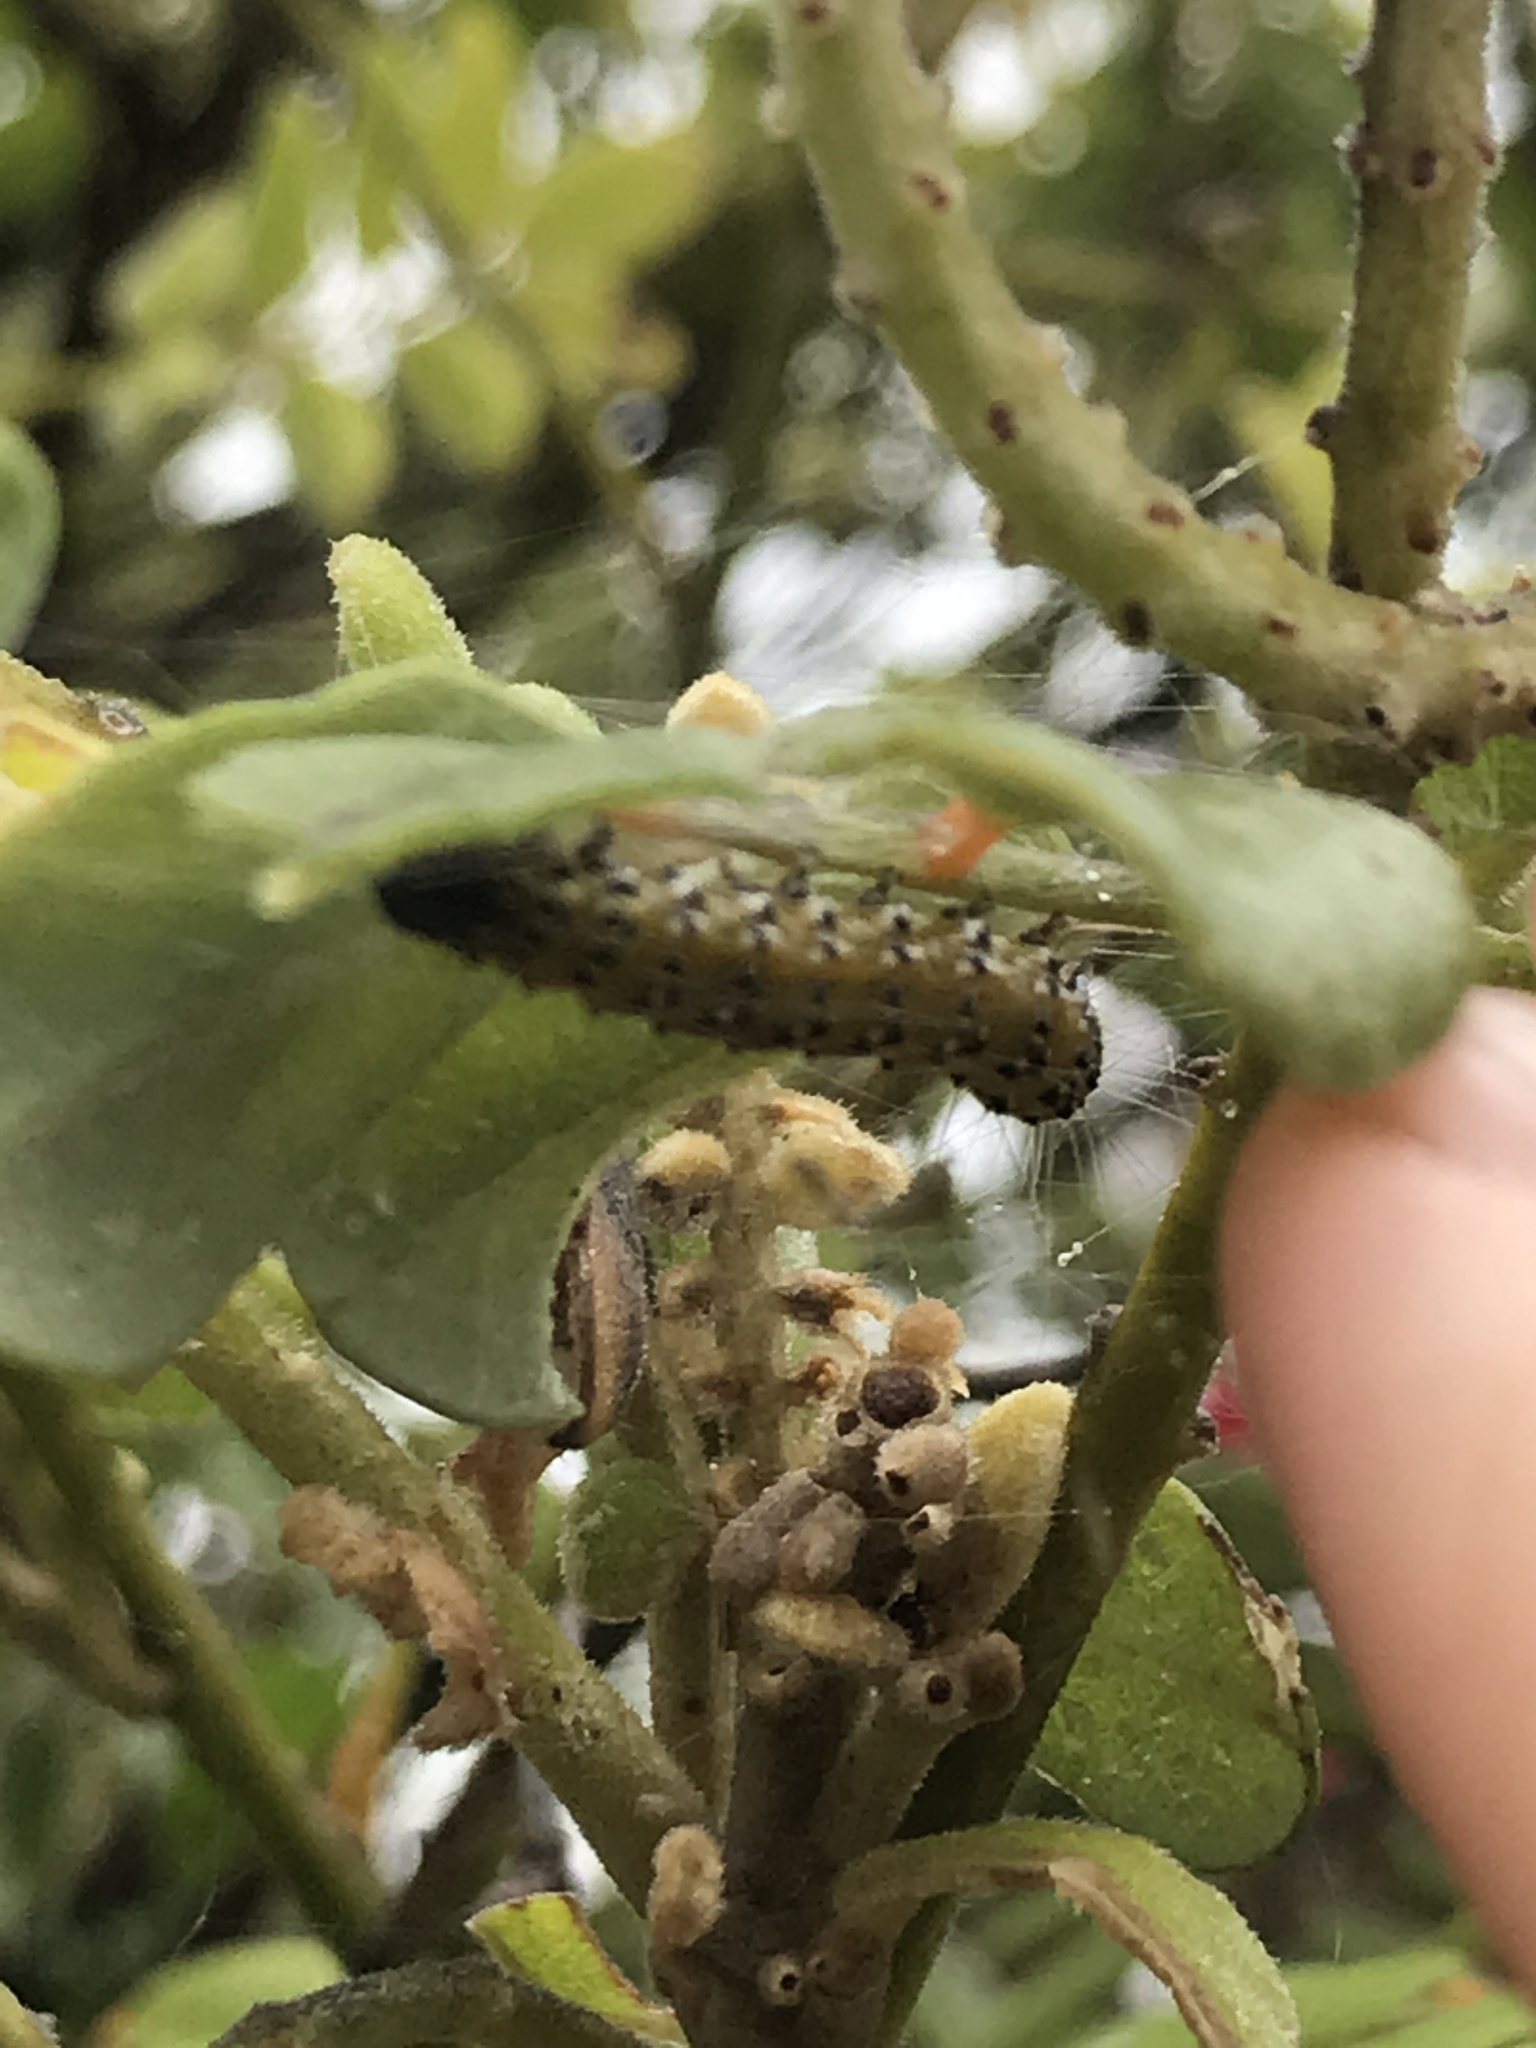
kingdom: Animalia
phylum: Arthropoda
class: Insecta
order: Lepidoptera
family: Crambidae
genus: Uresiphita
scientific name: Uresiphita reversalis
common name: Genista broom moth
